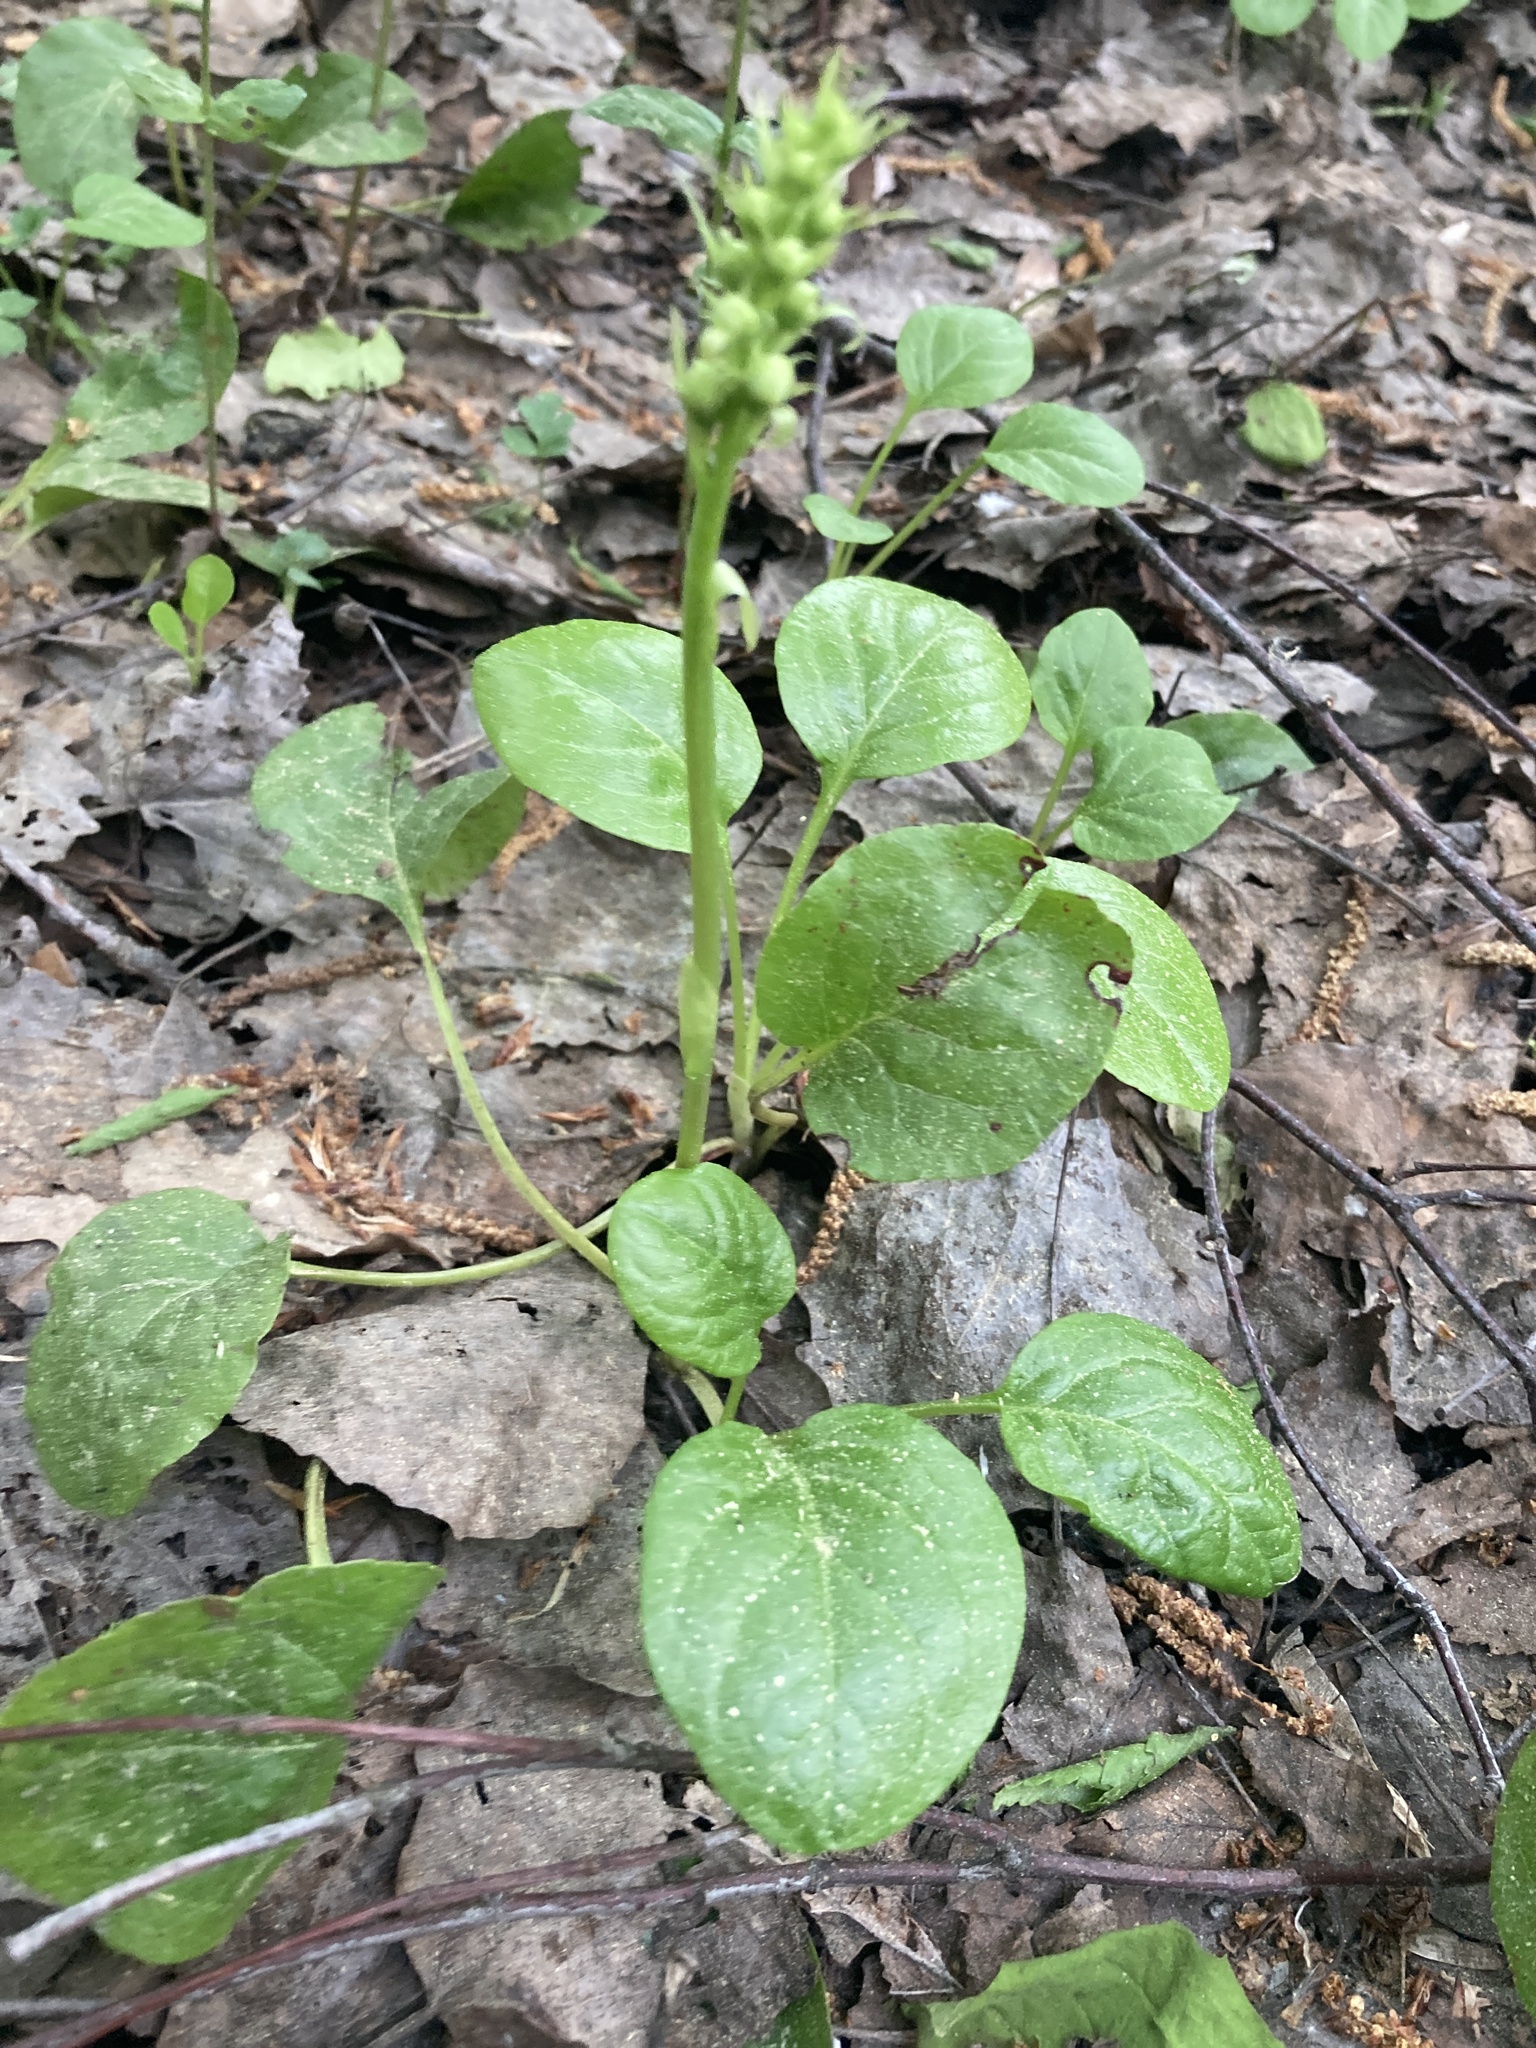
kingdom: Plantae
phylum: Tracheophyta
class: Magnoliopsida
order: Ericales
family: Ericaceae
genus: Pyrola
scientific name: Pyrola rotundifolia
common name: Round-leaved wintergreen
